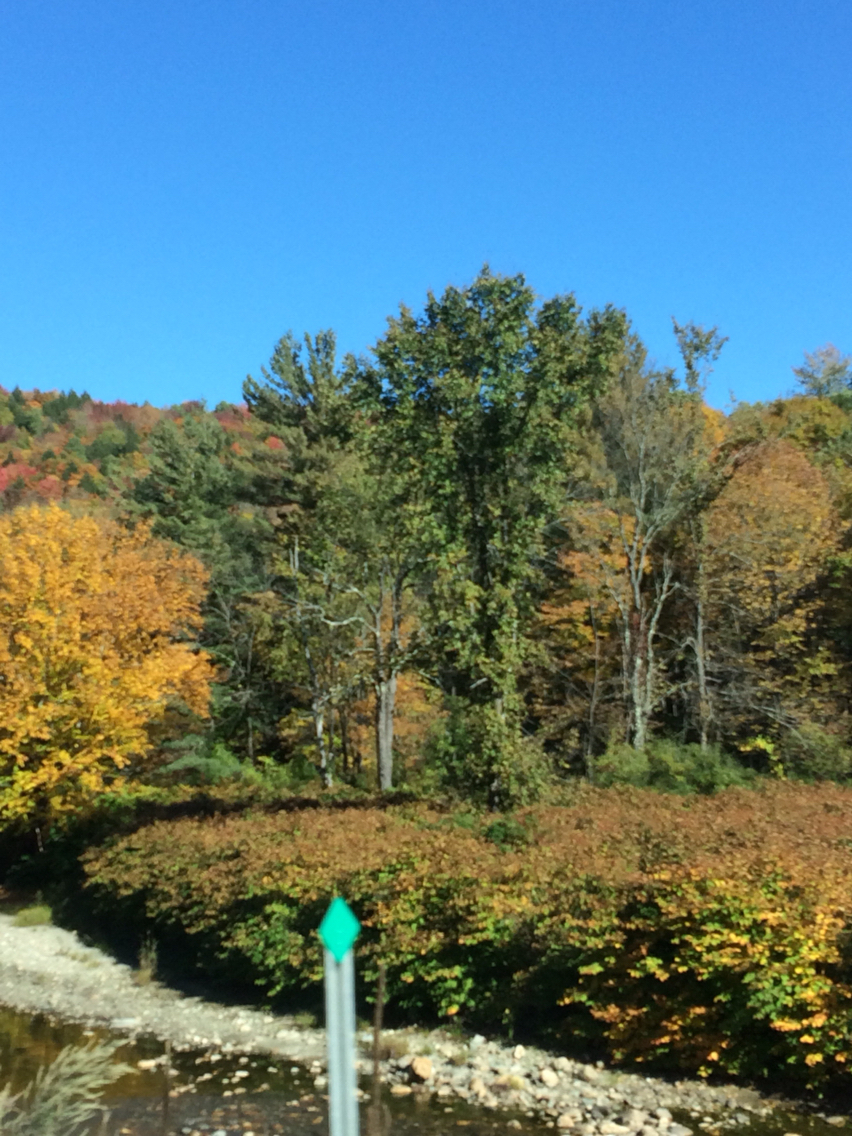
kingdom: Plantae
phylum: Tracheophyta
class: Pinopsida
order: Pinales
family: Pinaceae
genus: Pinus
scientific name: Pinus strobus
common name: Weymouth pine
